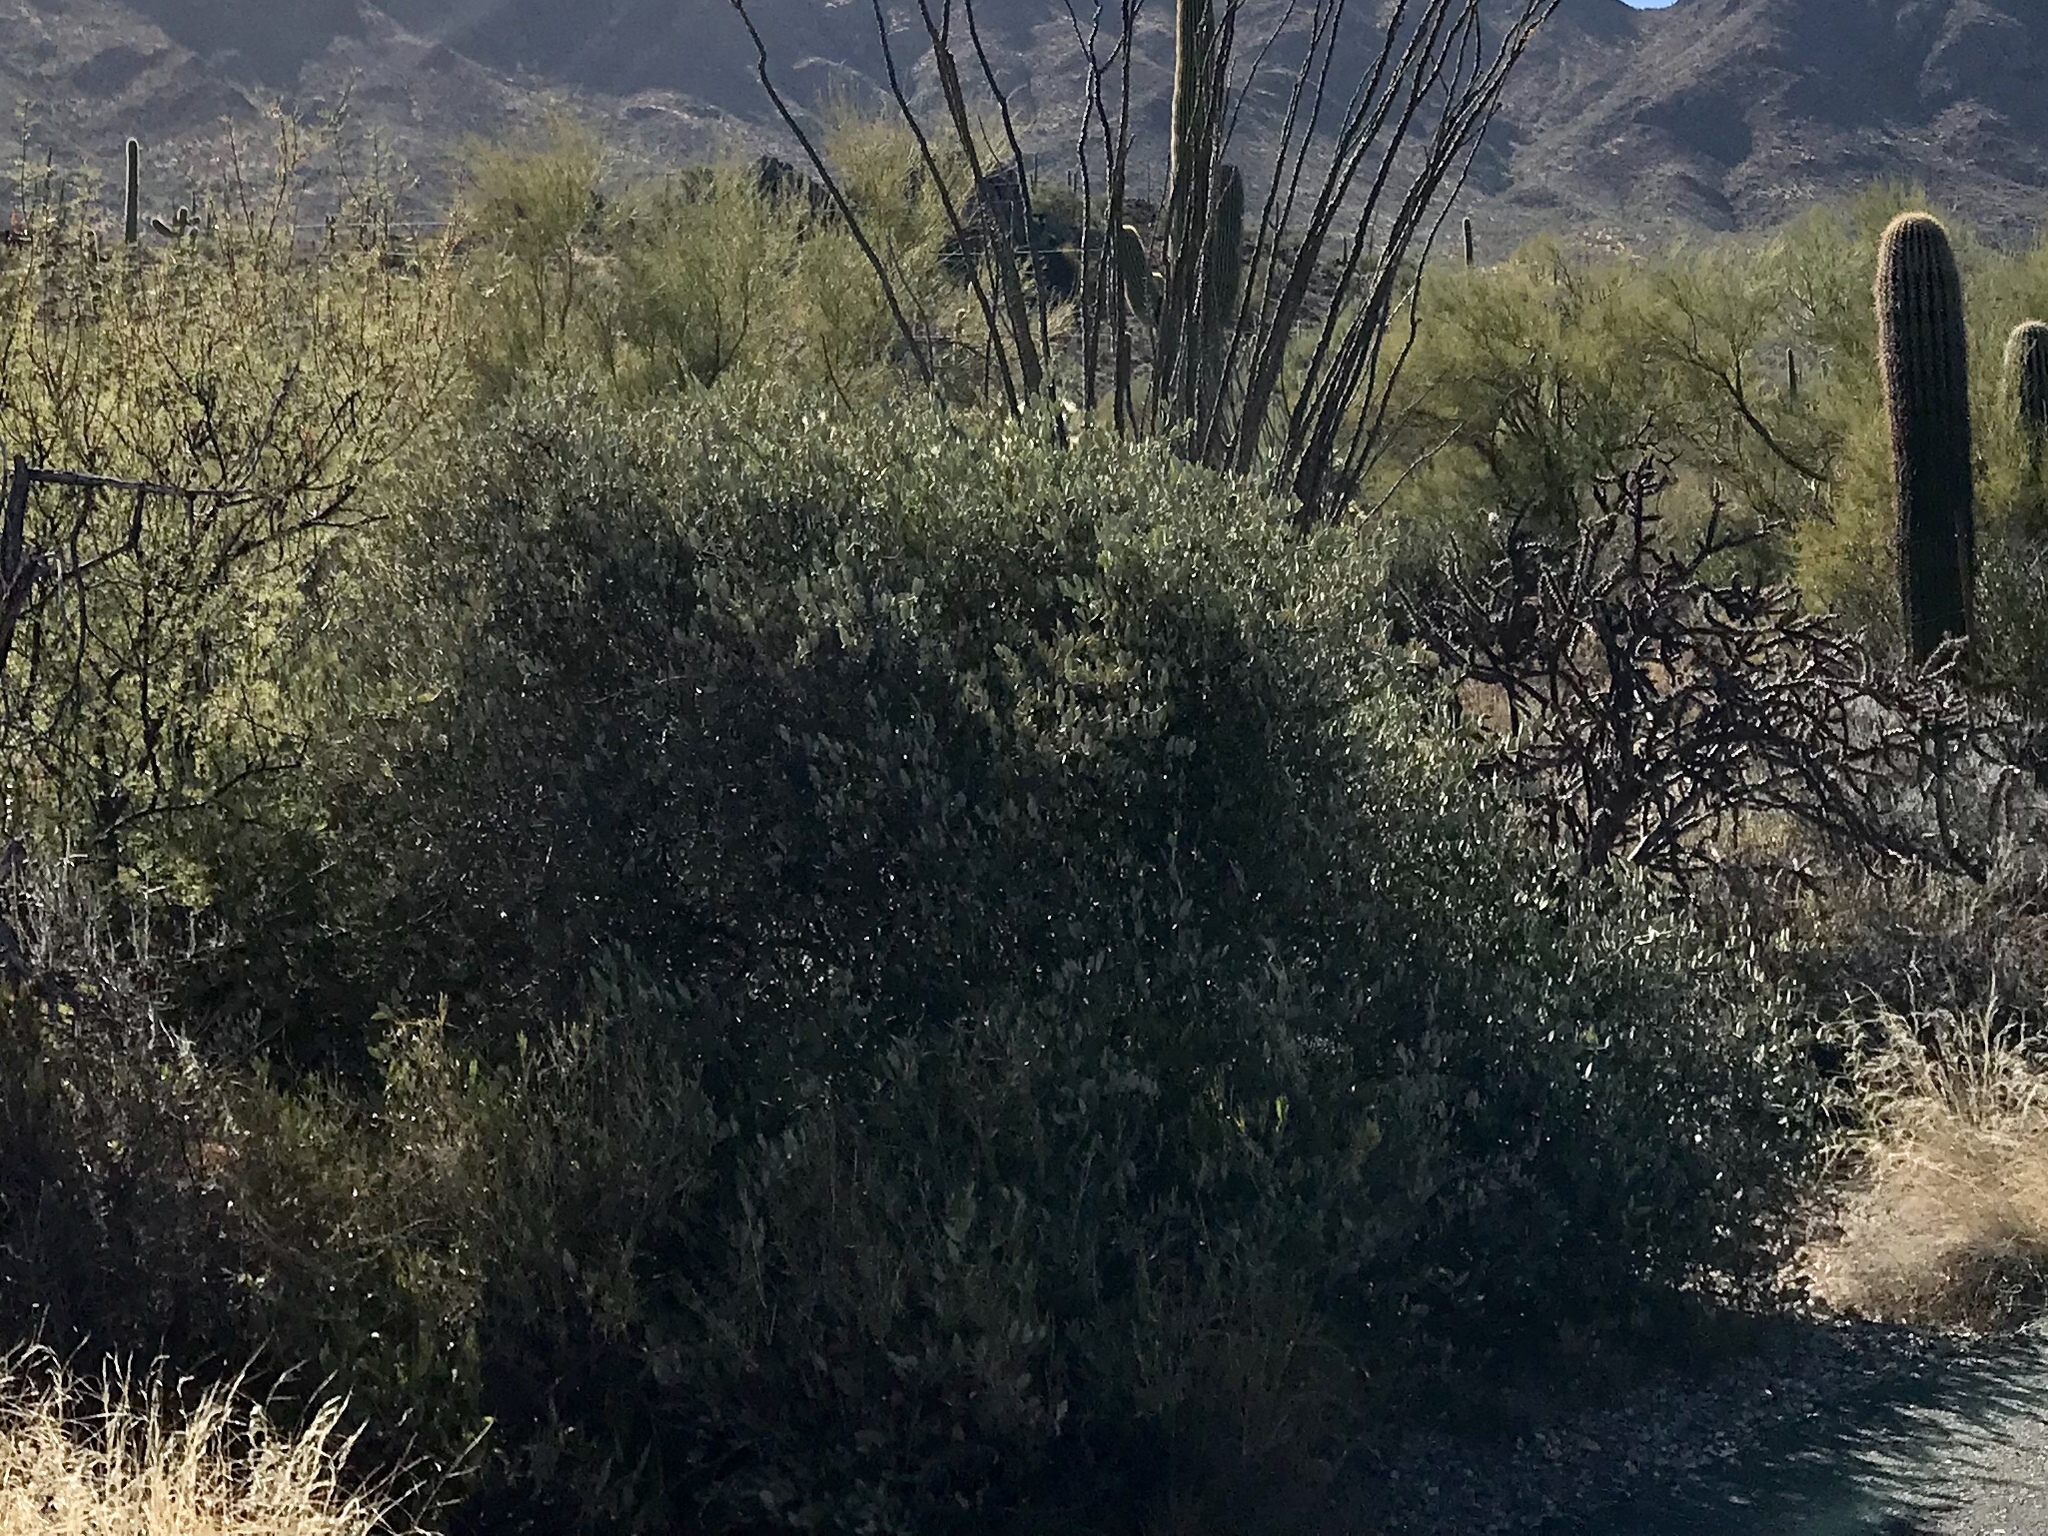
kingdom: Plantae
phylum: Tracheophyta
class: Magnoliopsida
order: Caryophyllales
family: Simmondsiaceae
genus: Simmondsia
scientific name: Simmondsia chinensis
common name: Jojoba
